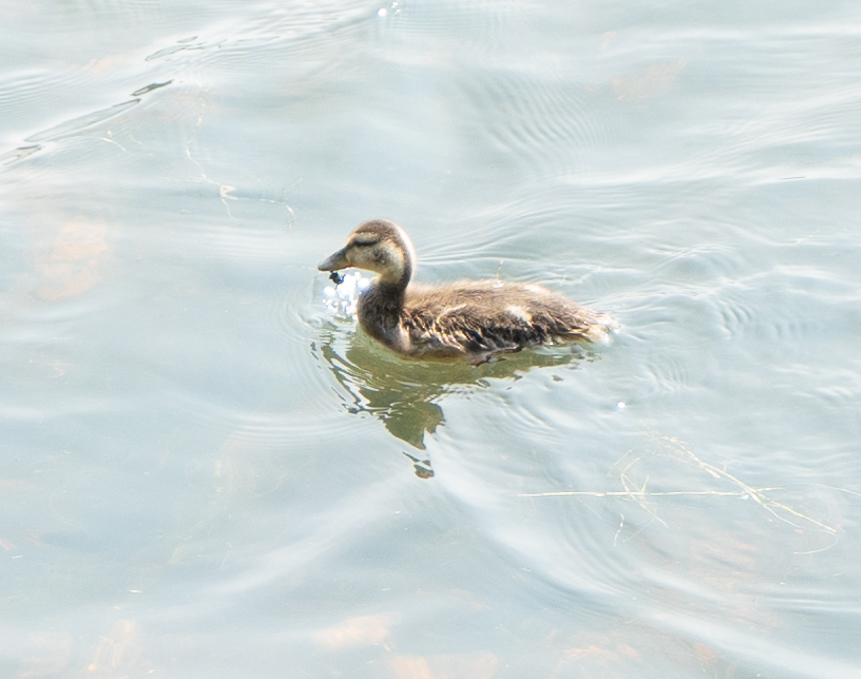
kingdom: Animalia
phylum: Chordata
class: Aves
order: Anseriformes
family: Anatidae
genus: Anas
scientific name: Anas platyrhynchos
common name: Mallard
